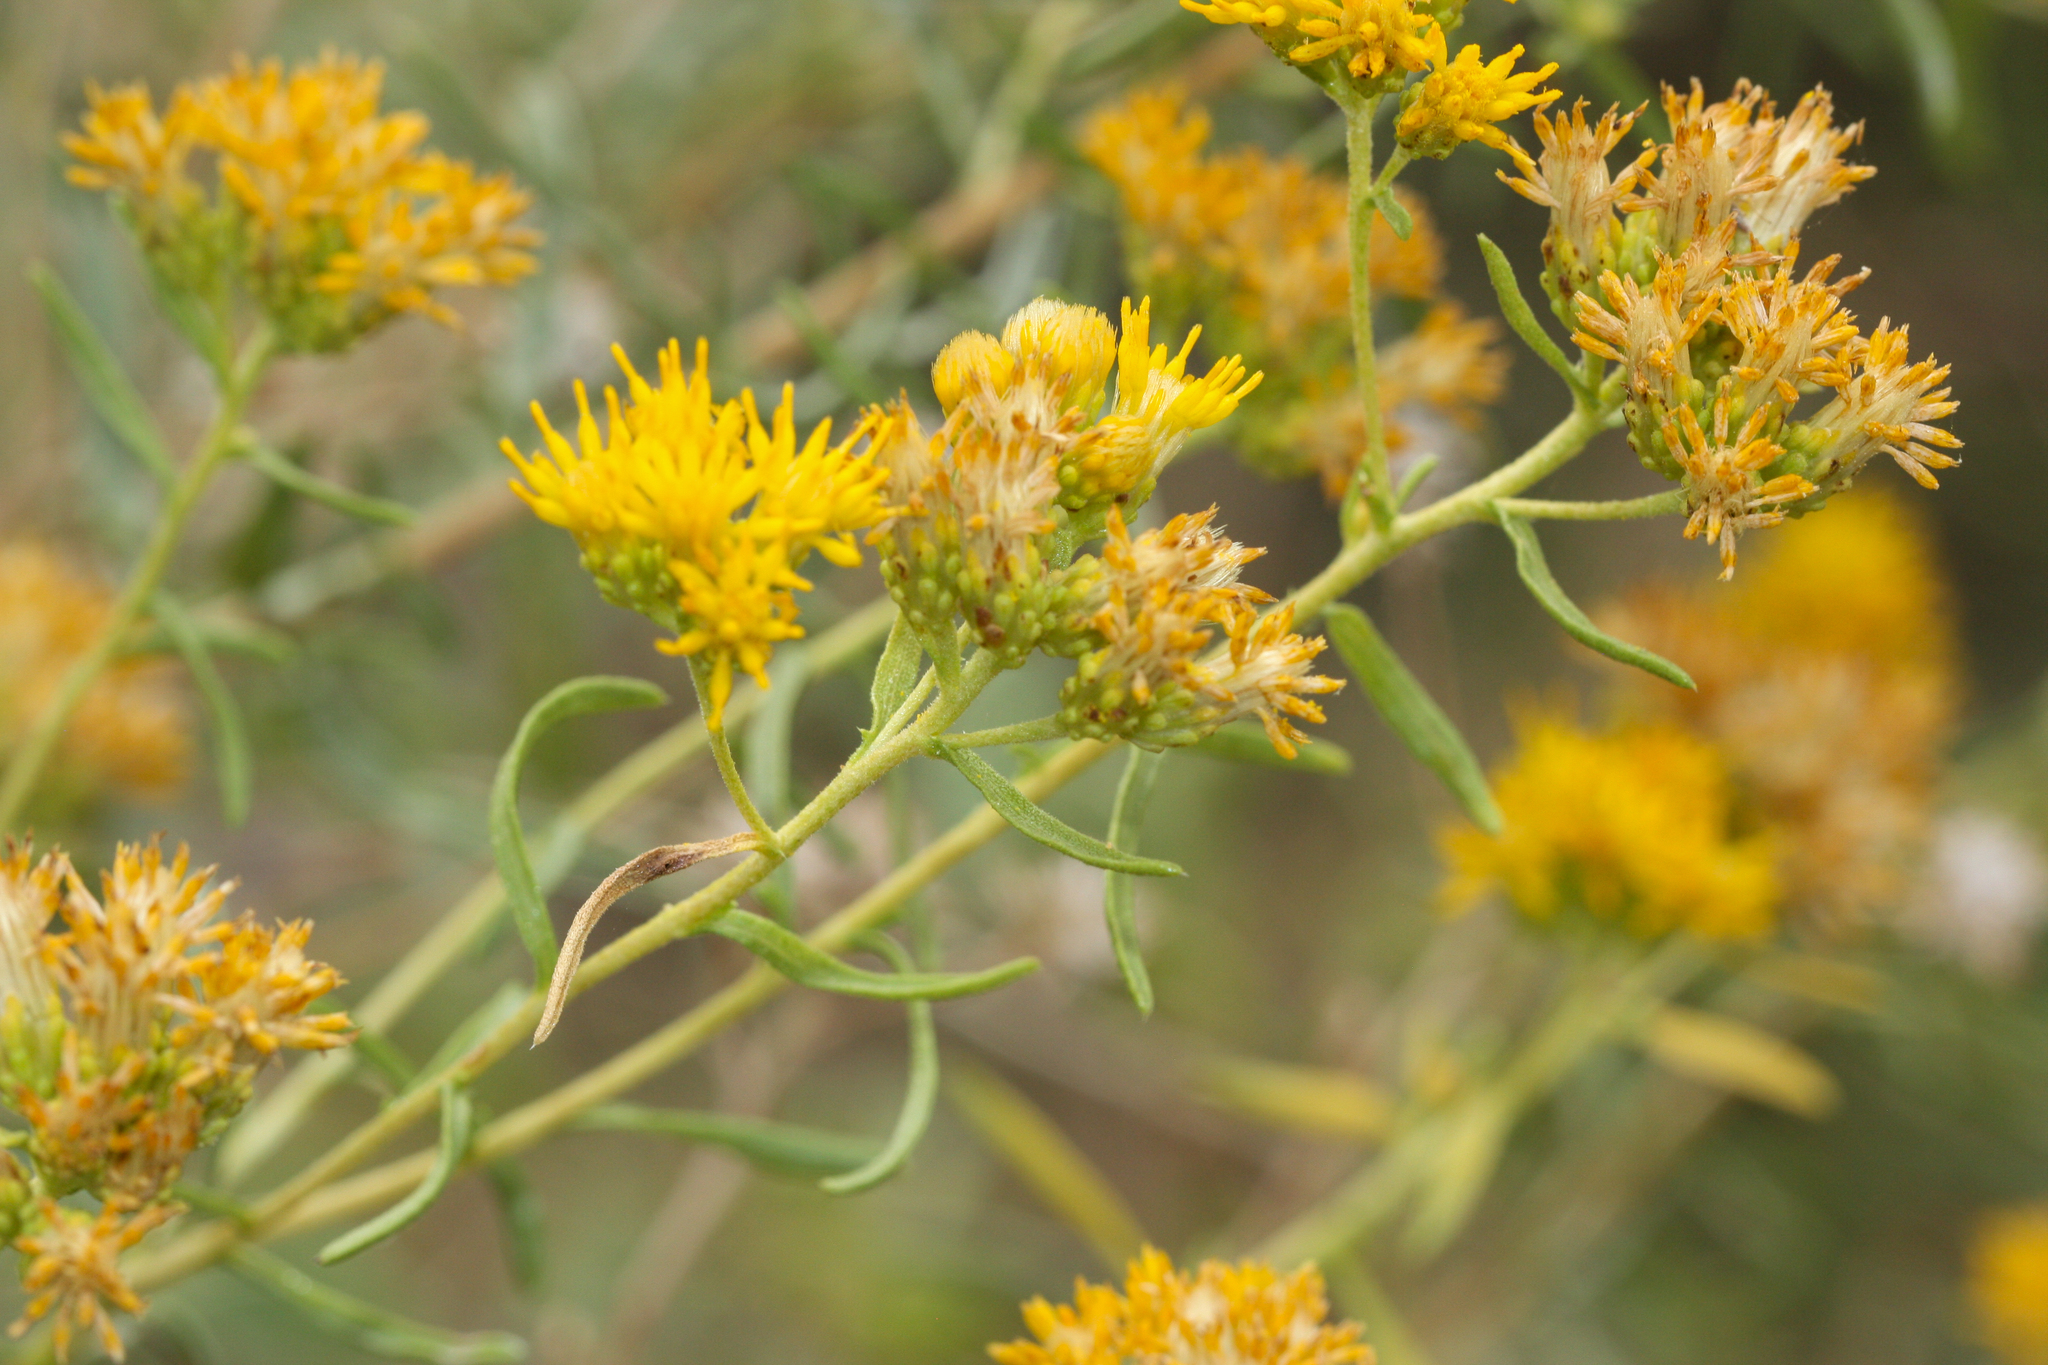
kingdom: Plantae
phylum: Tracheophyta
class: Magnoliopsida
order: Asterales
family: Asteraceae
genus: Isocoma
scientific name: Isocoma acradenia
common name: Alkali jimmyweed
